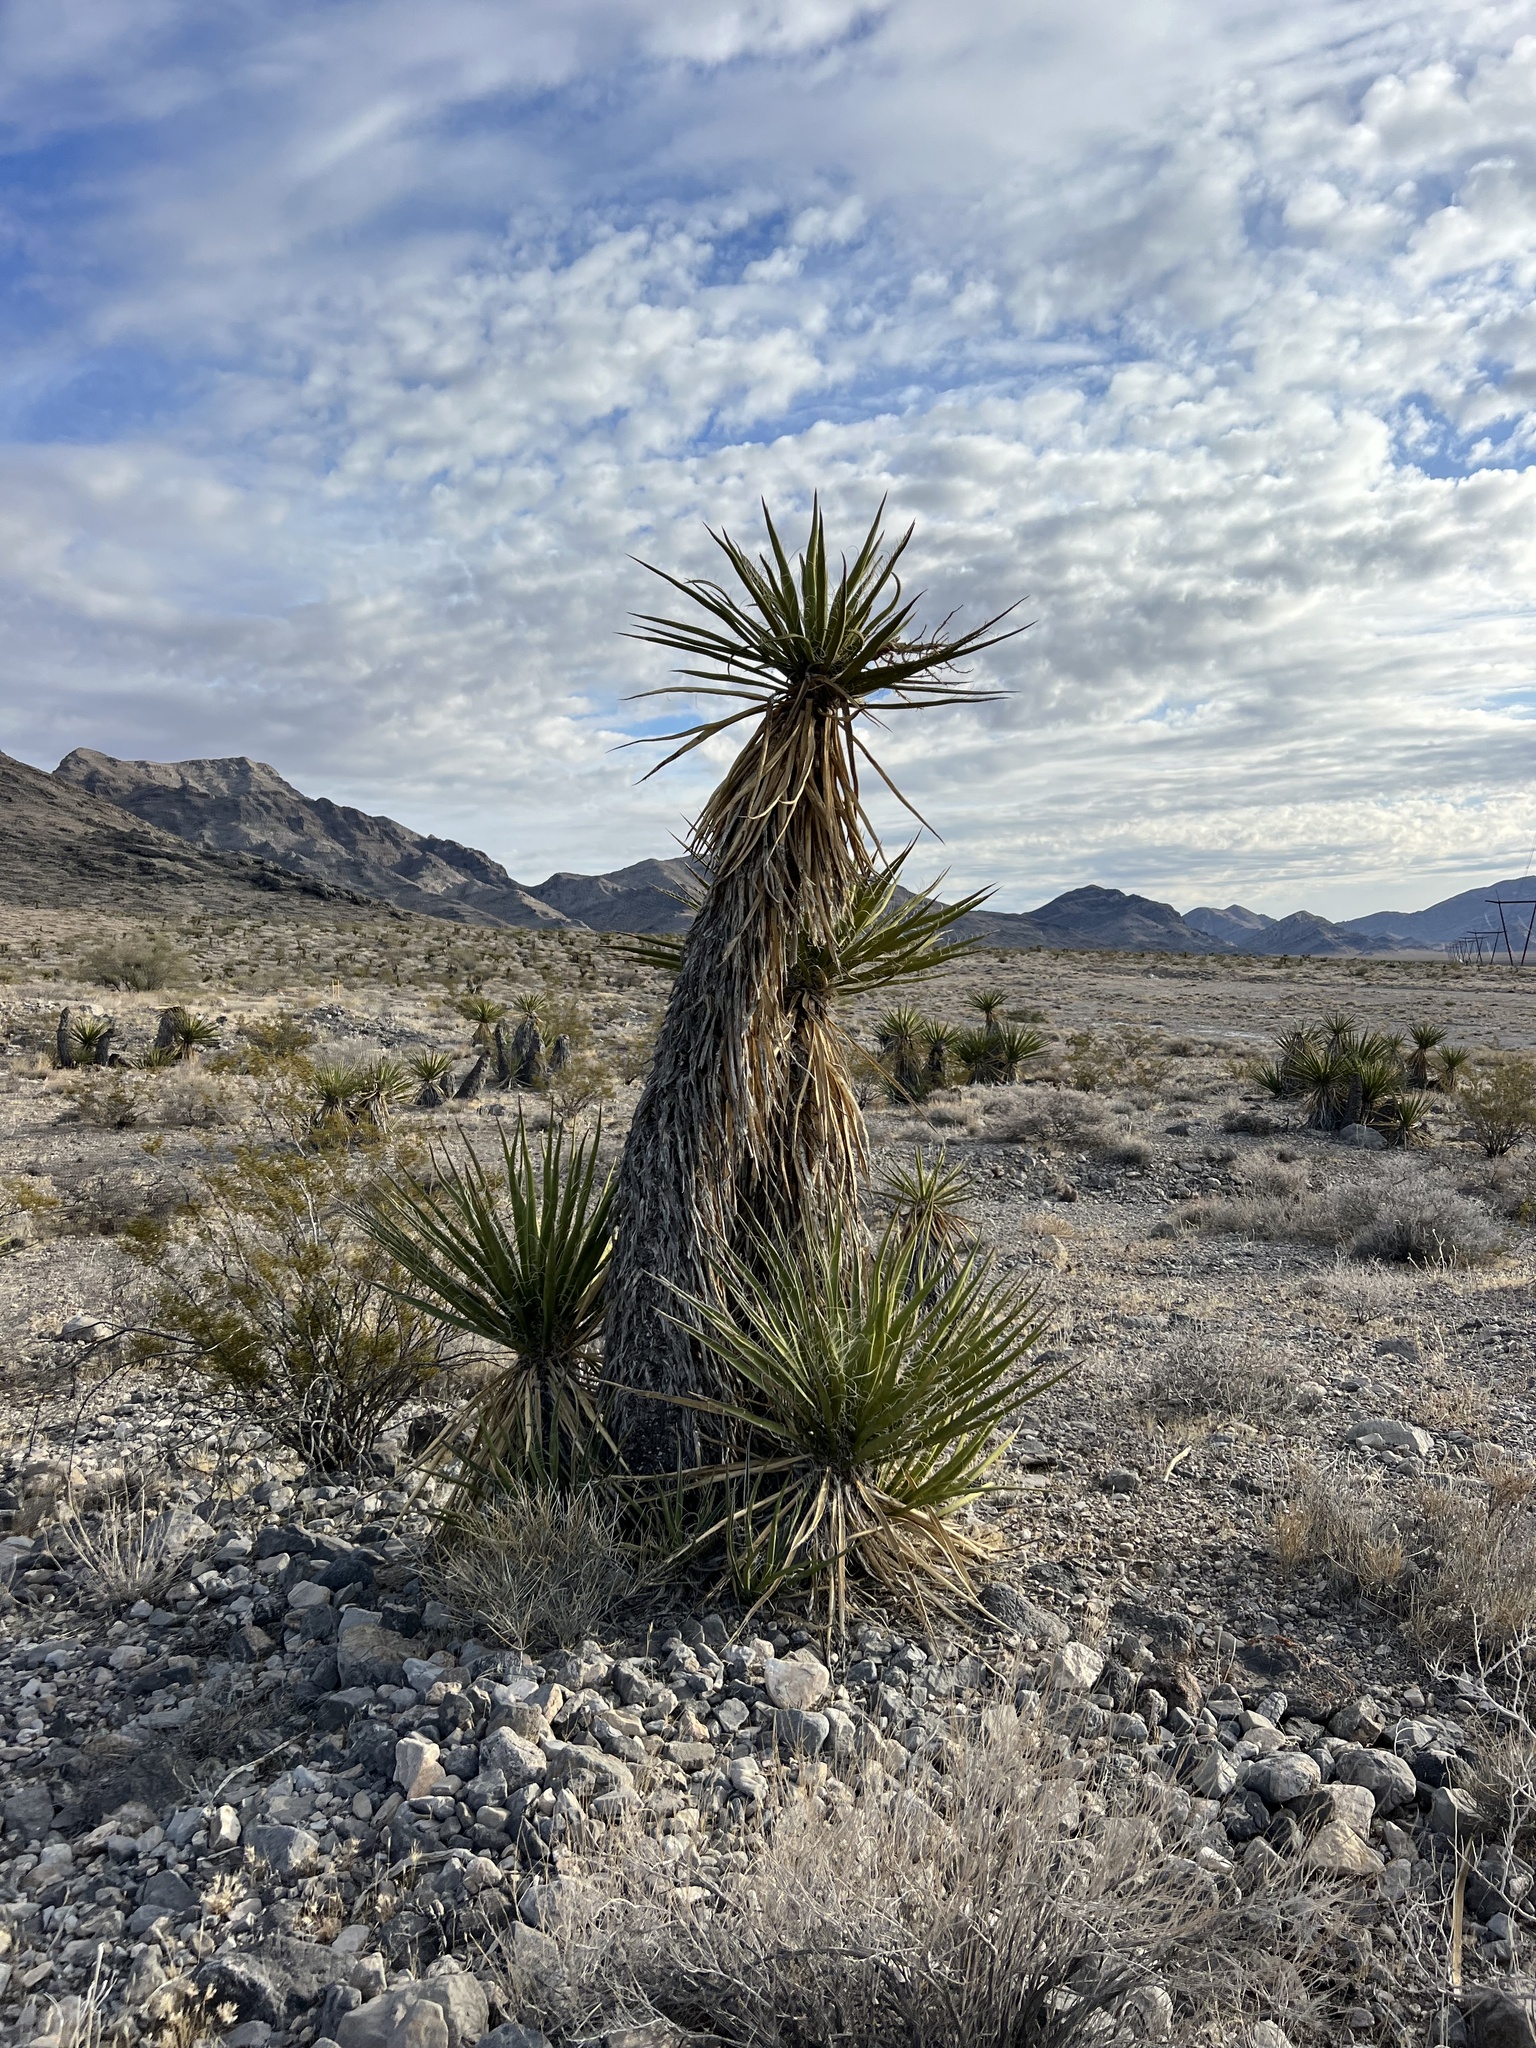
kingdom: Plantae
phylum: Tracheophyta
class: Liliopsida
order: Asparagales
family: Asparagaceae
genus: Yucca
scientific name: Yucca schidigera
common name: Mojave yucca
